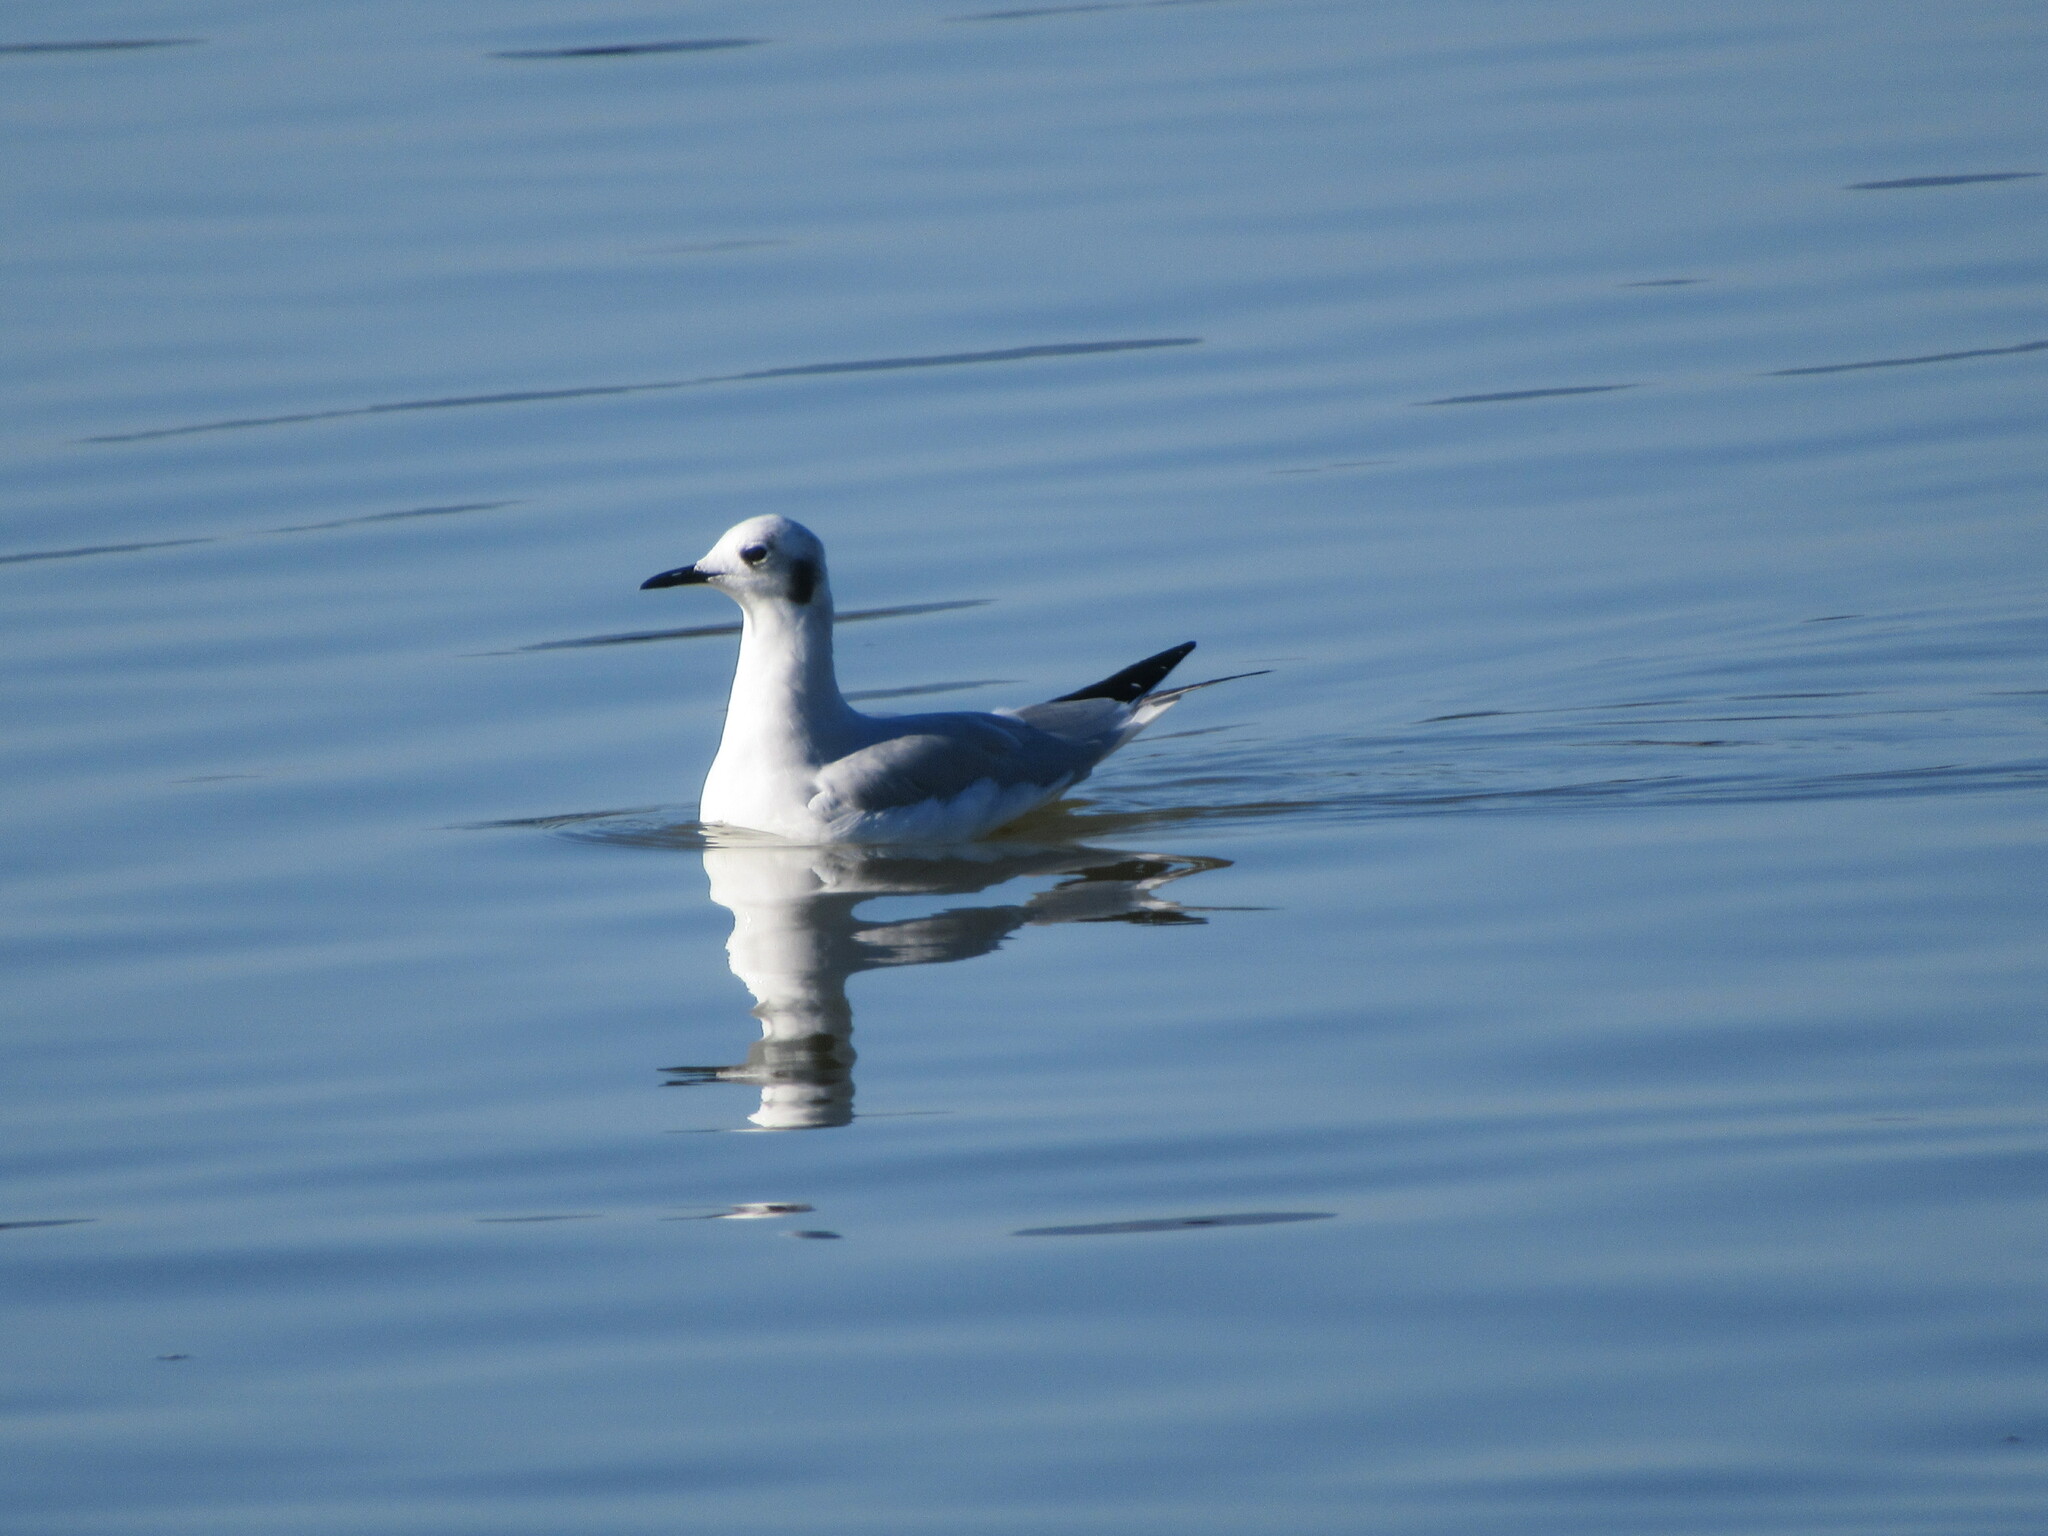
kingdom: Animalia
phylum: Chordata
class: Aves
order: Charadriiformes
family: Laridae
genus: Chroicocephalus
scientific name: Chroicocephalus philadelphia
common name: Bonaparte's gull
